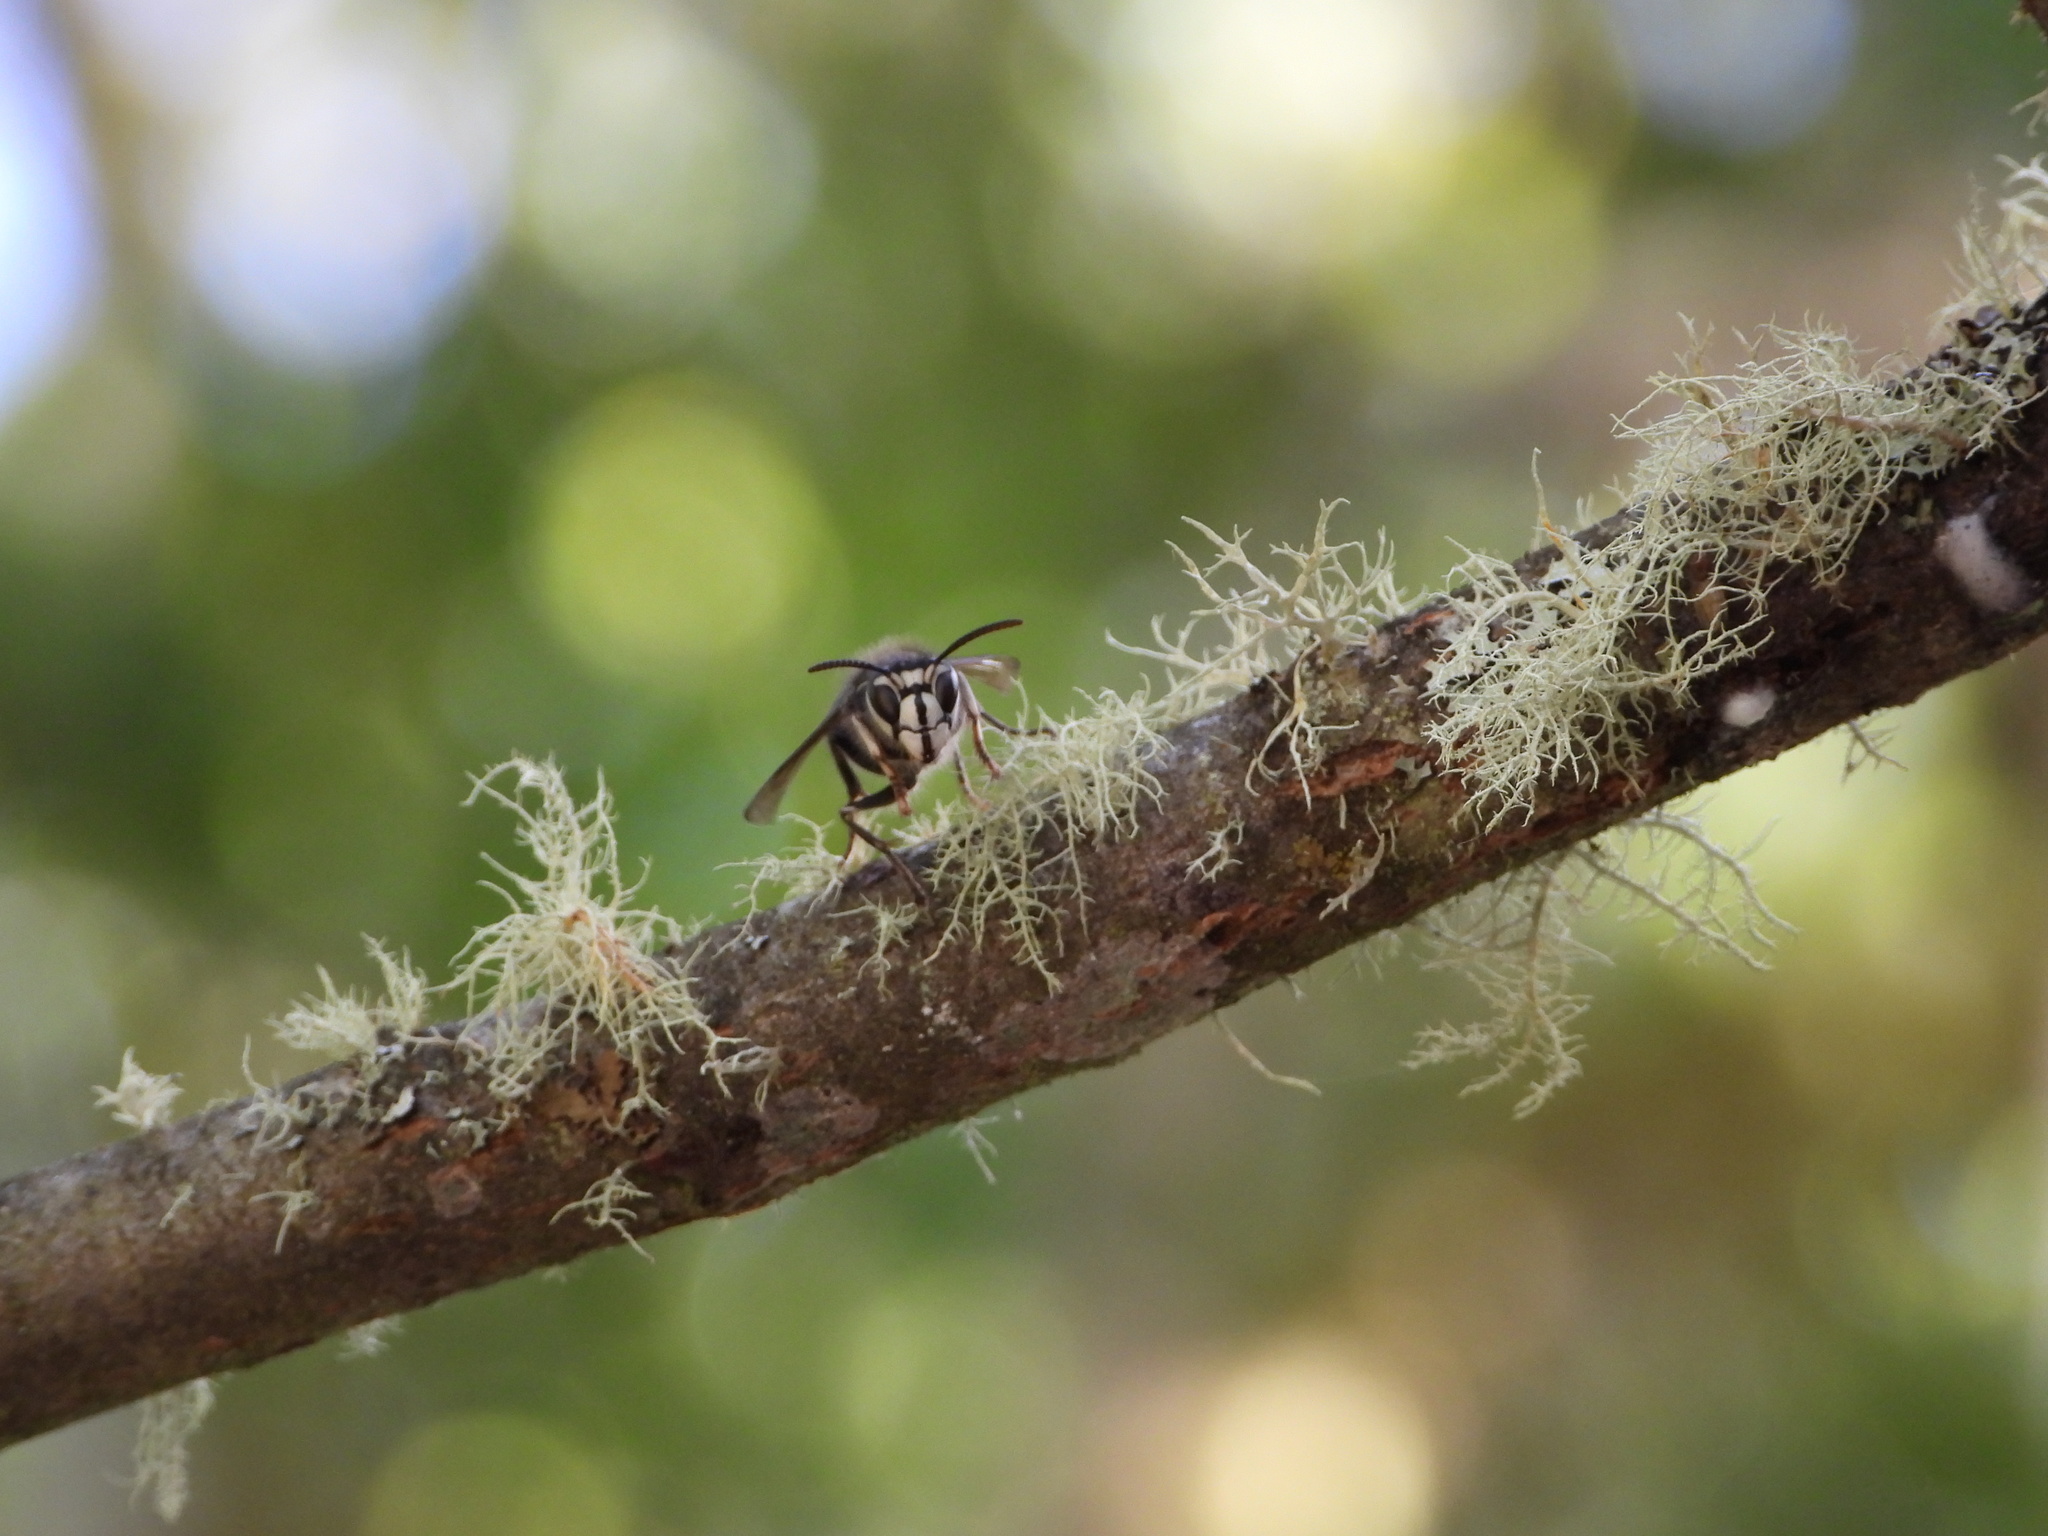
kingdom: Animalia
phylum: Arthropoda
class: Insecta
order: Hymenoptera
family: Vespidae
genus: Dolichovespula
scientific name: Dolichovespula maculata
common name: Bald-faced hornet
